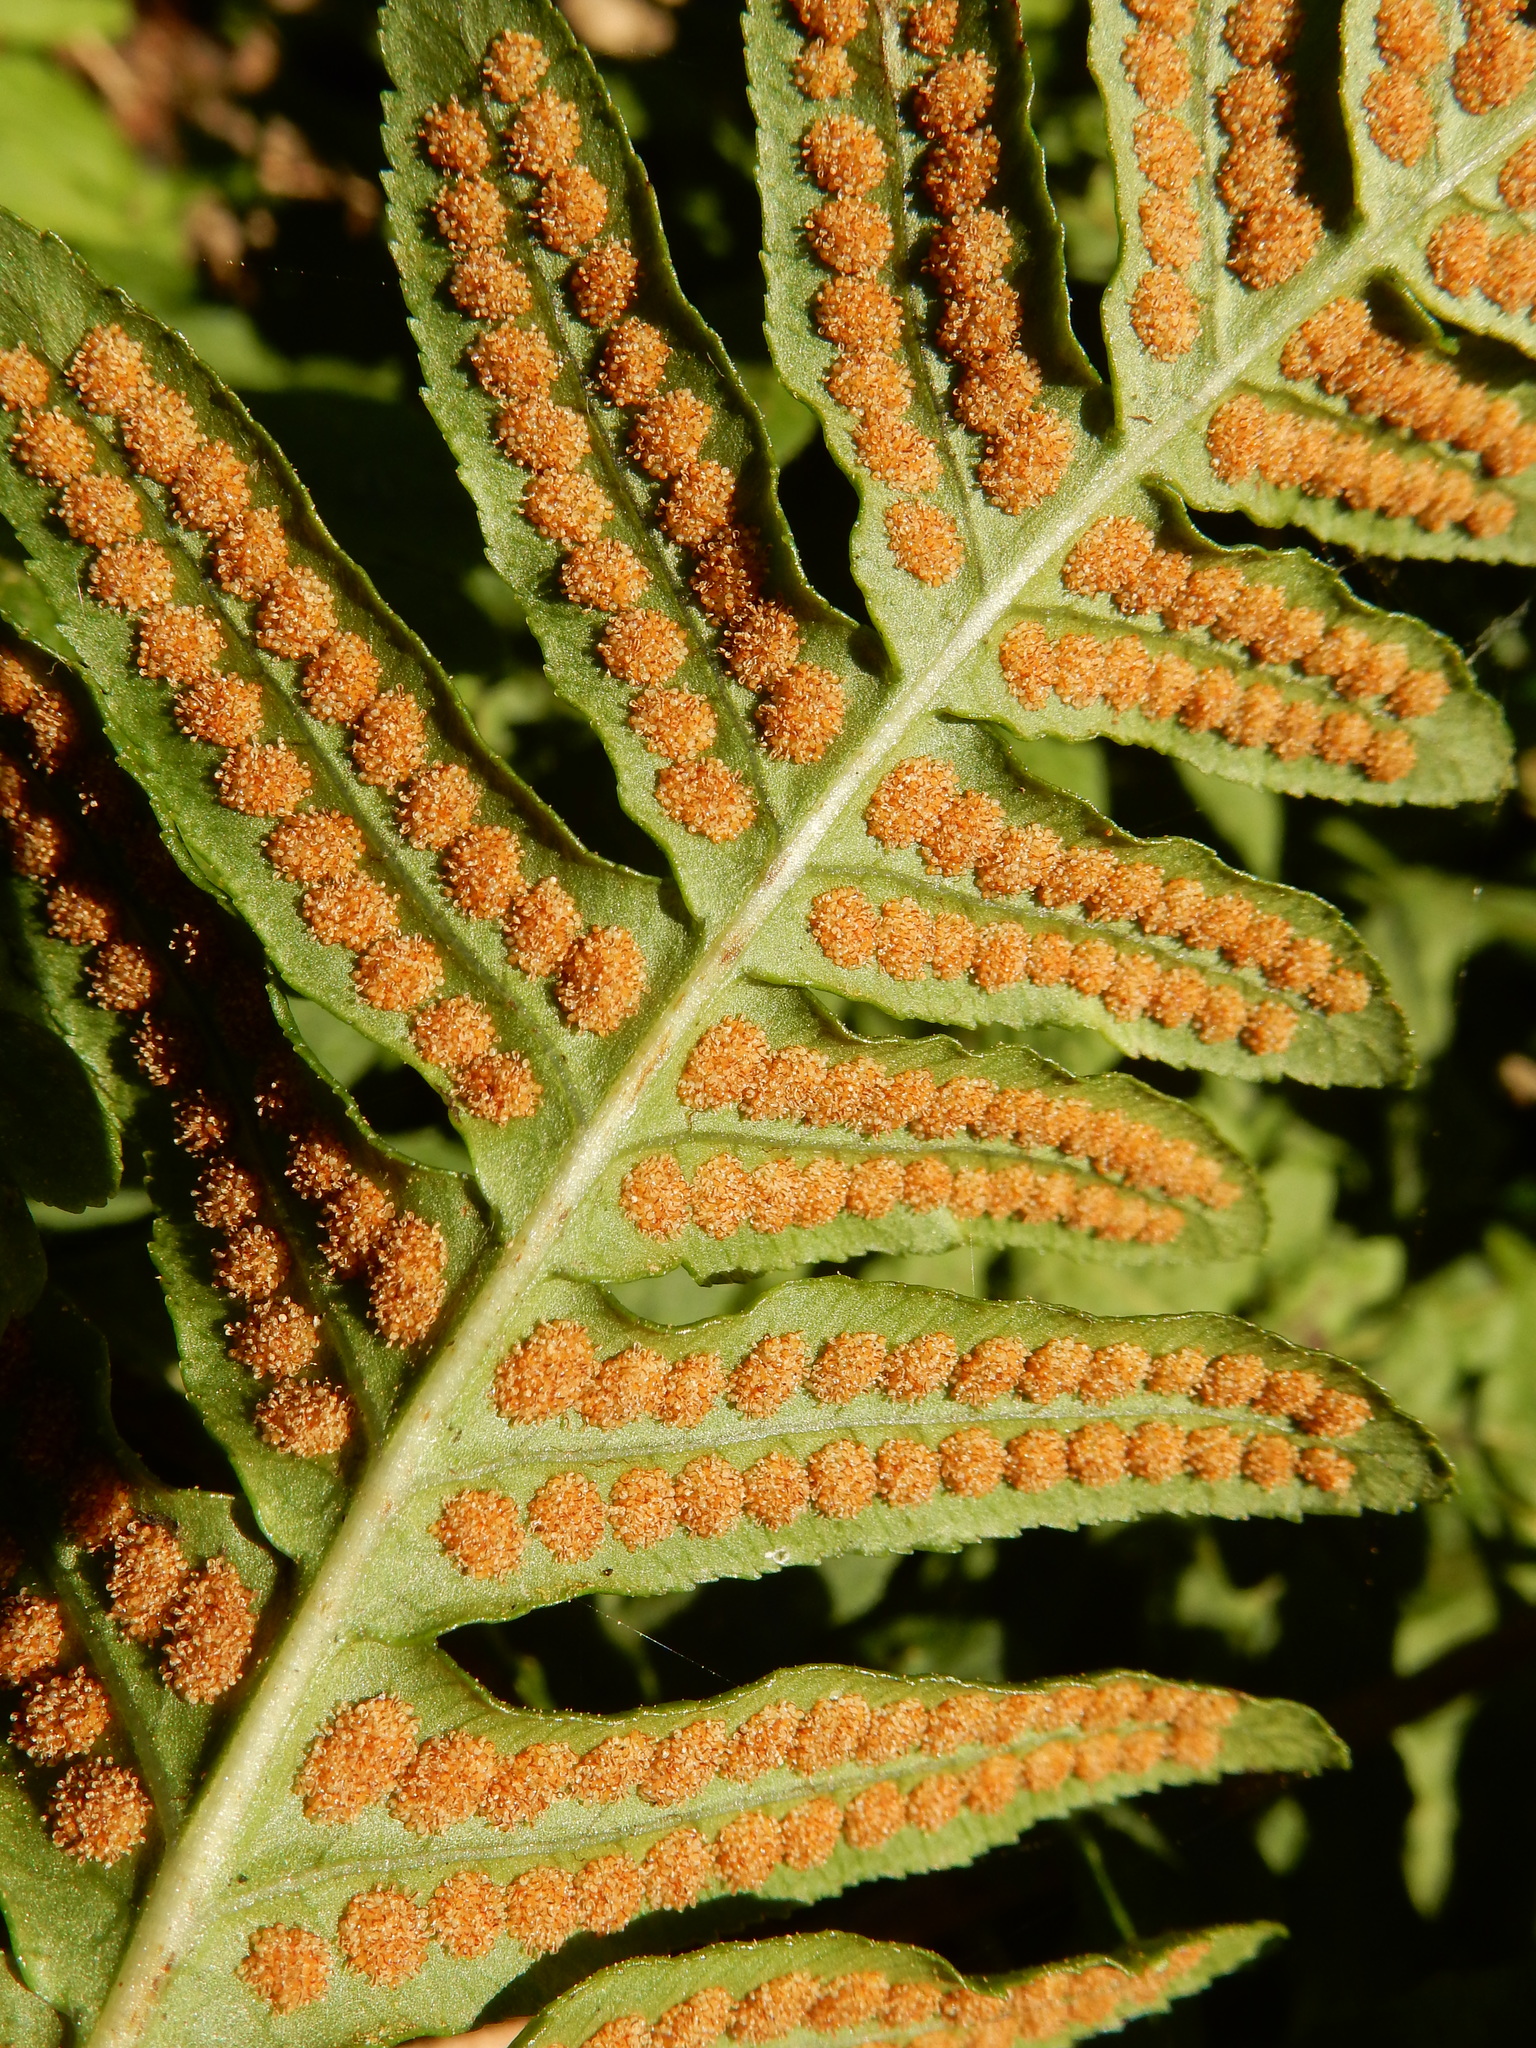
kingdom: Plantae
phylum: Tracheophyta
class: Polypodiopsida
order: Polypodiales
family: Polypodiaceae
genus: Polypodium
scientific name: Polypodium calirhiza
